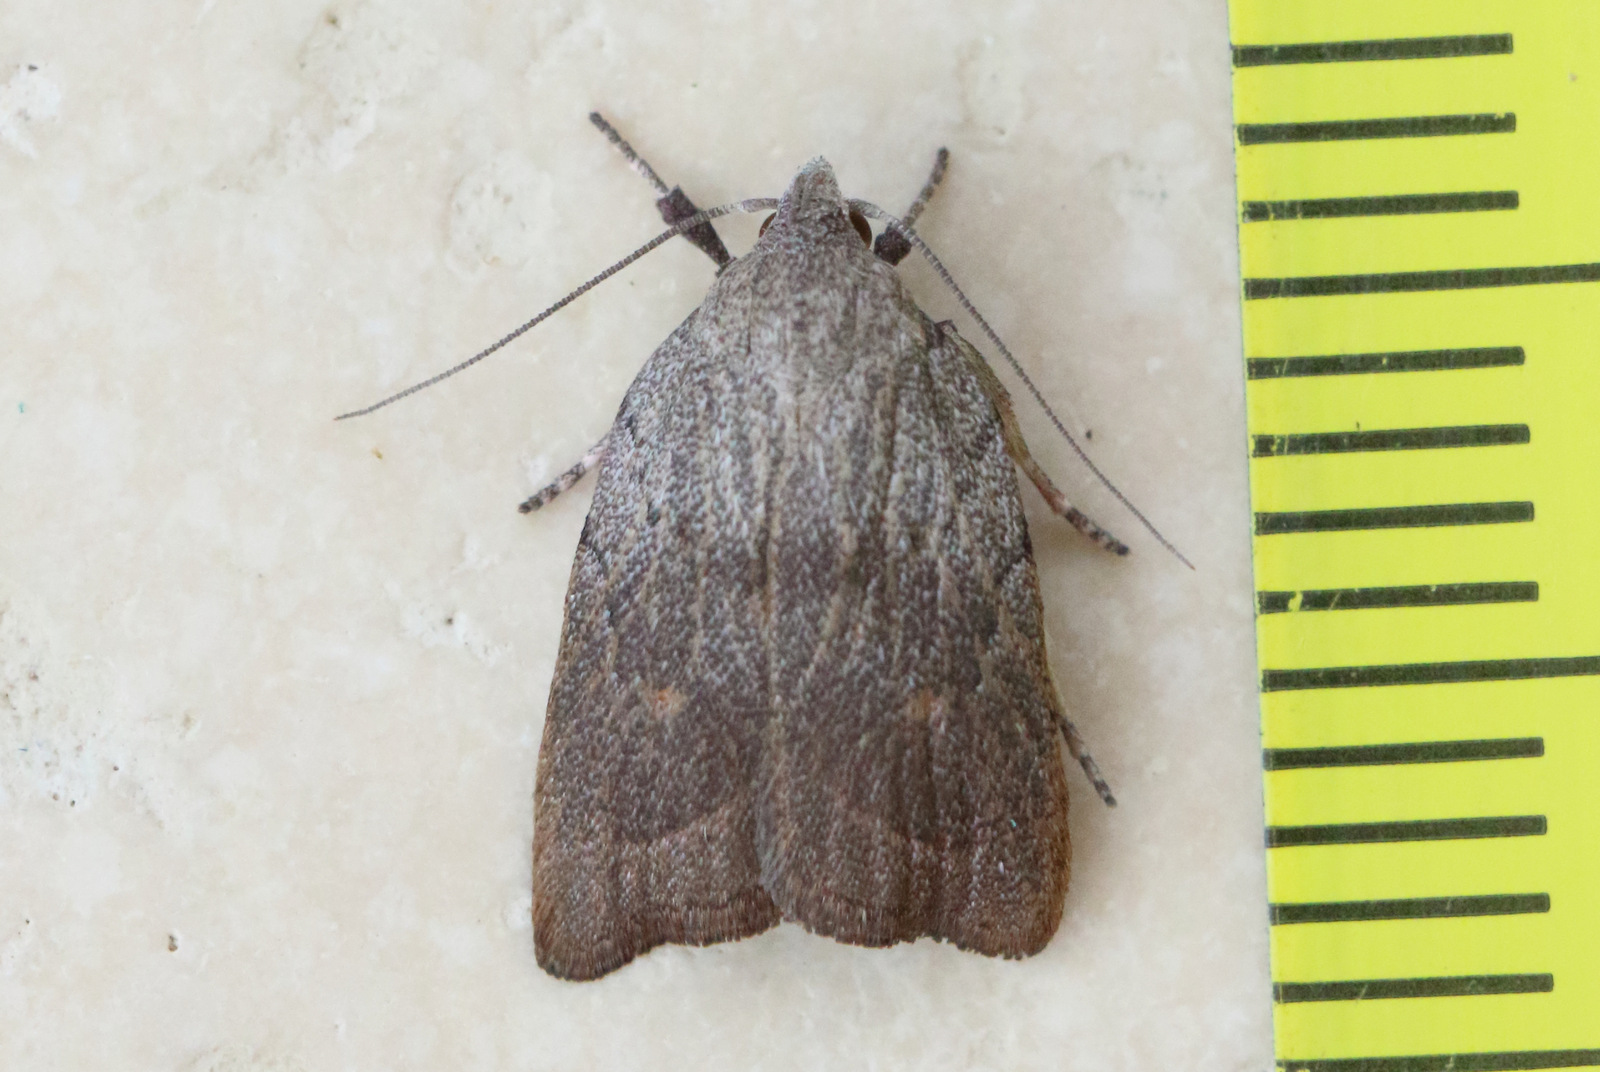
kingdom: Animalia
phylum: Arthropoda
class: Insecta
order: Lepidoptera
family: Oecophoridae
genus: Tortricopsis
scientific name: Tortricopsis pyroptis
